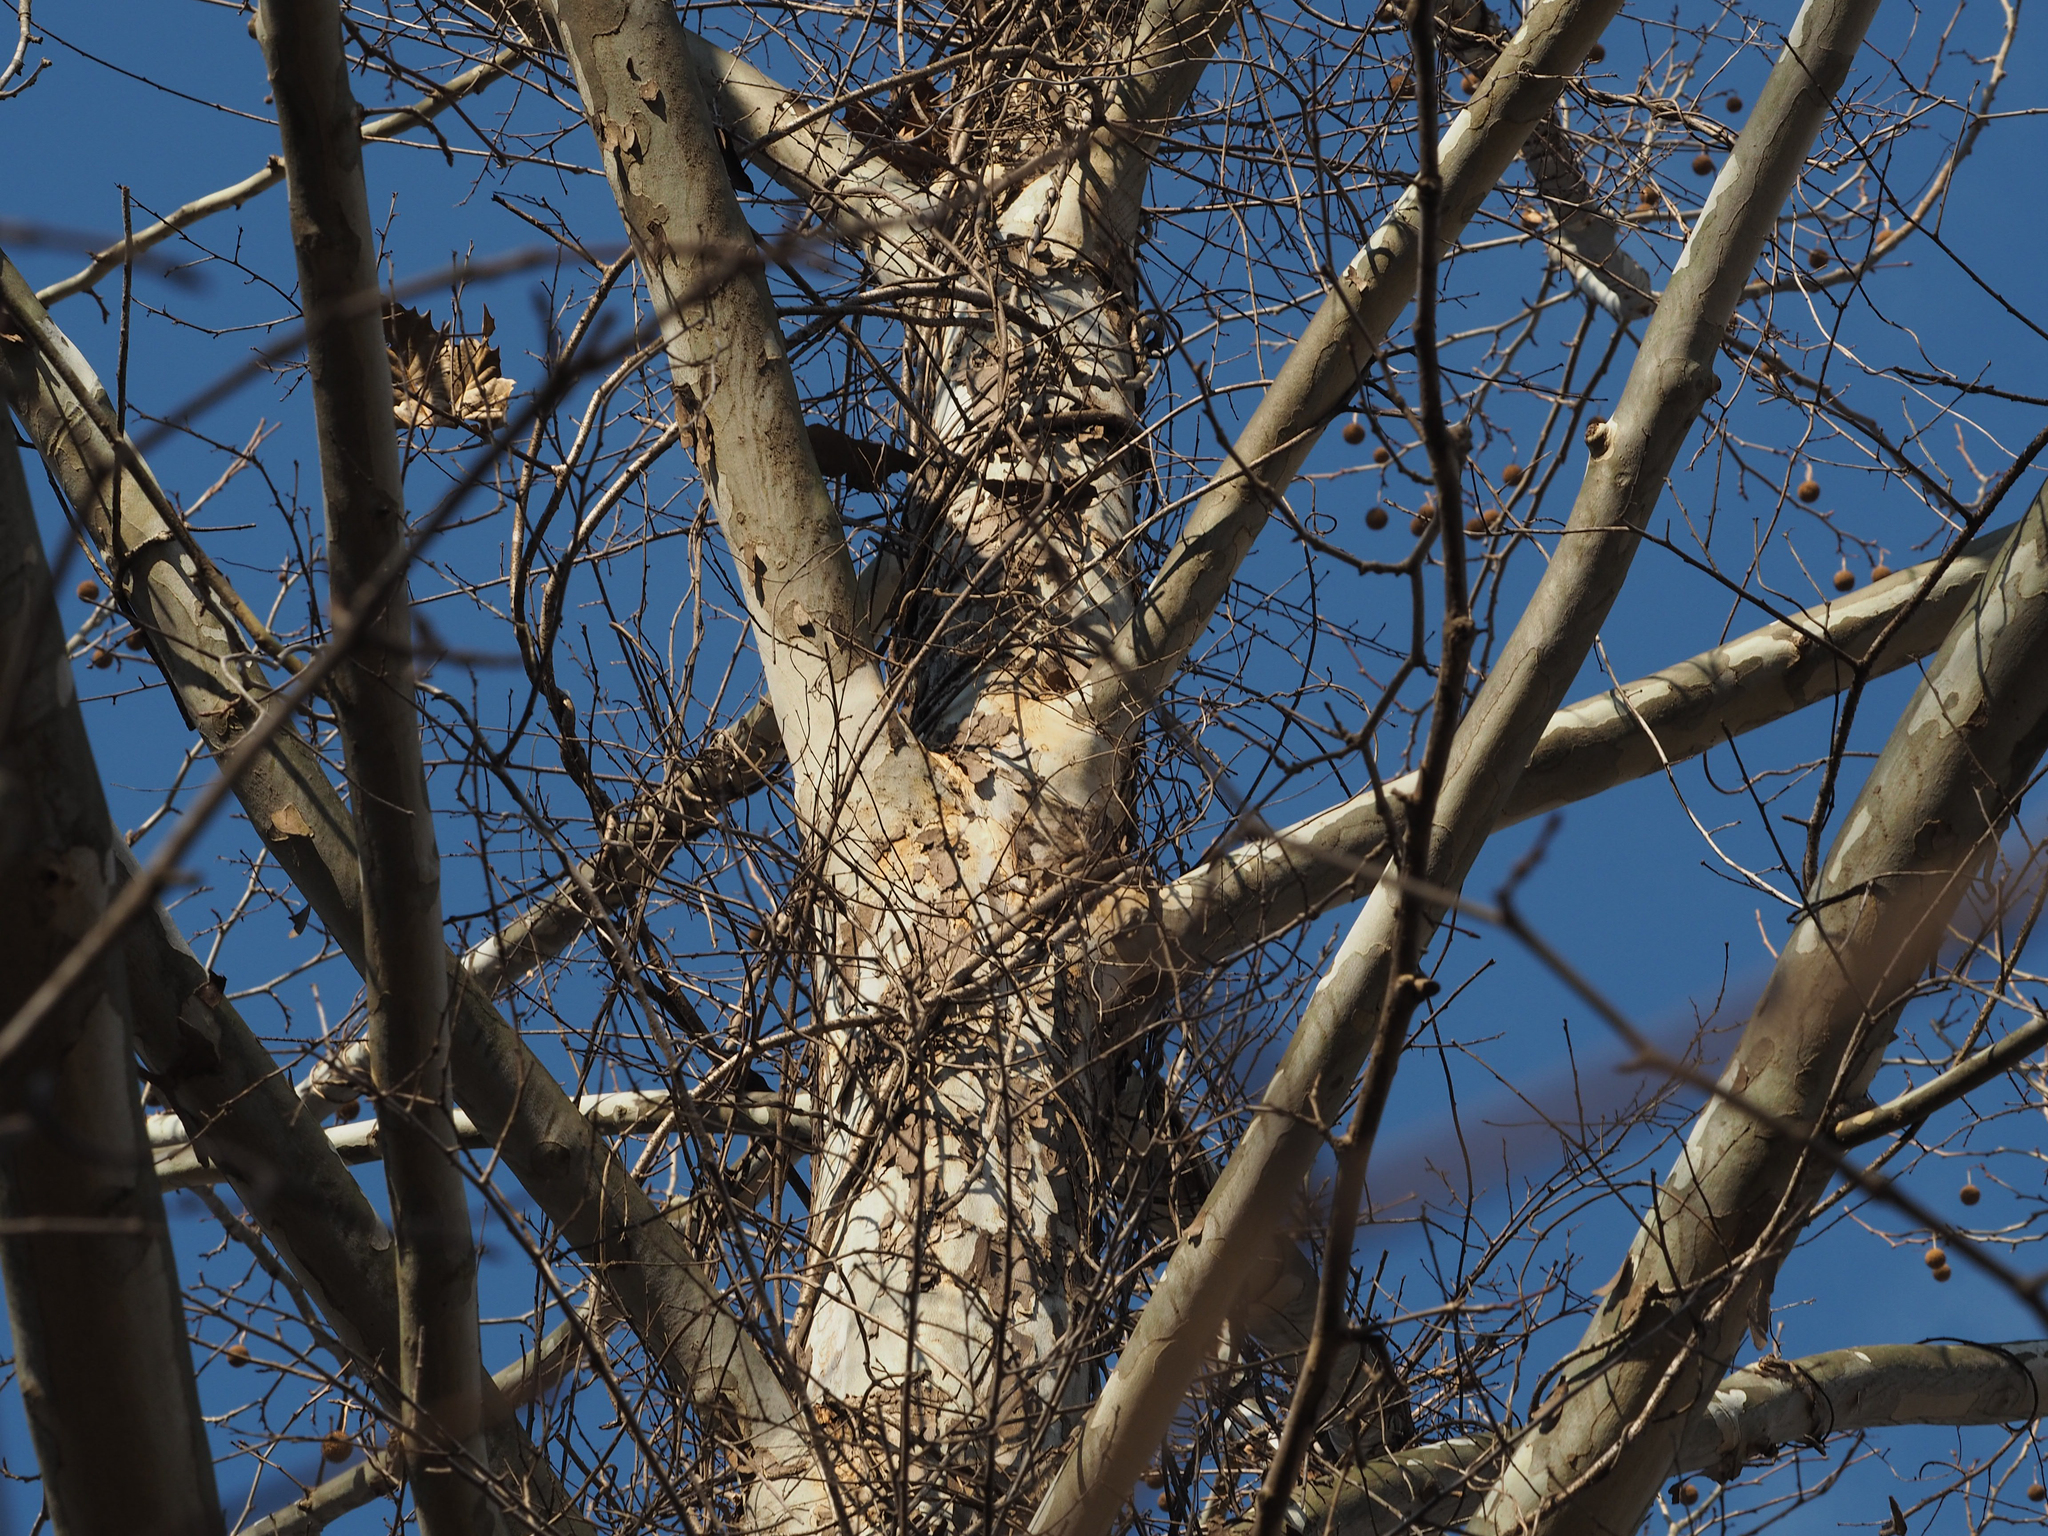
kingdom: Plantae
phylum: Tracheophyta
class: Magnoliopsida
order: Proteales
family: Platanaceae
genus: Platanus
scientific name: Platanus occidentalis
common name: American sycamore
